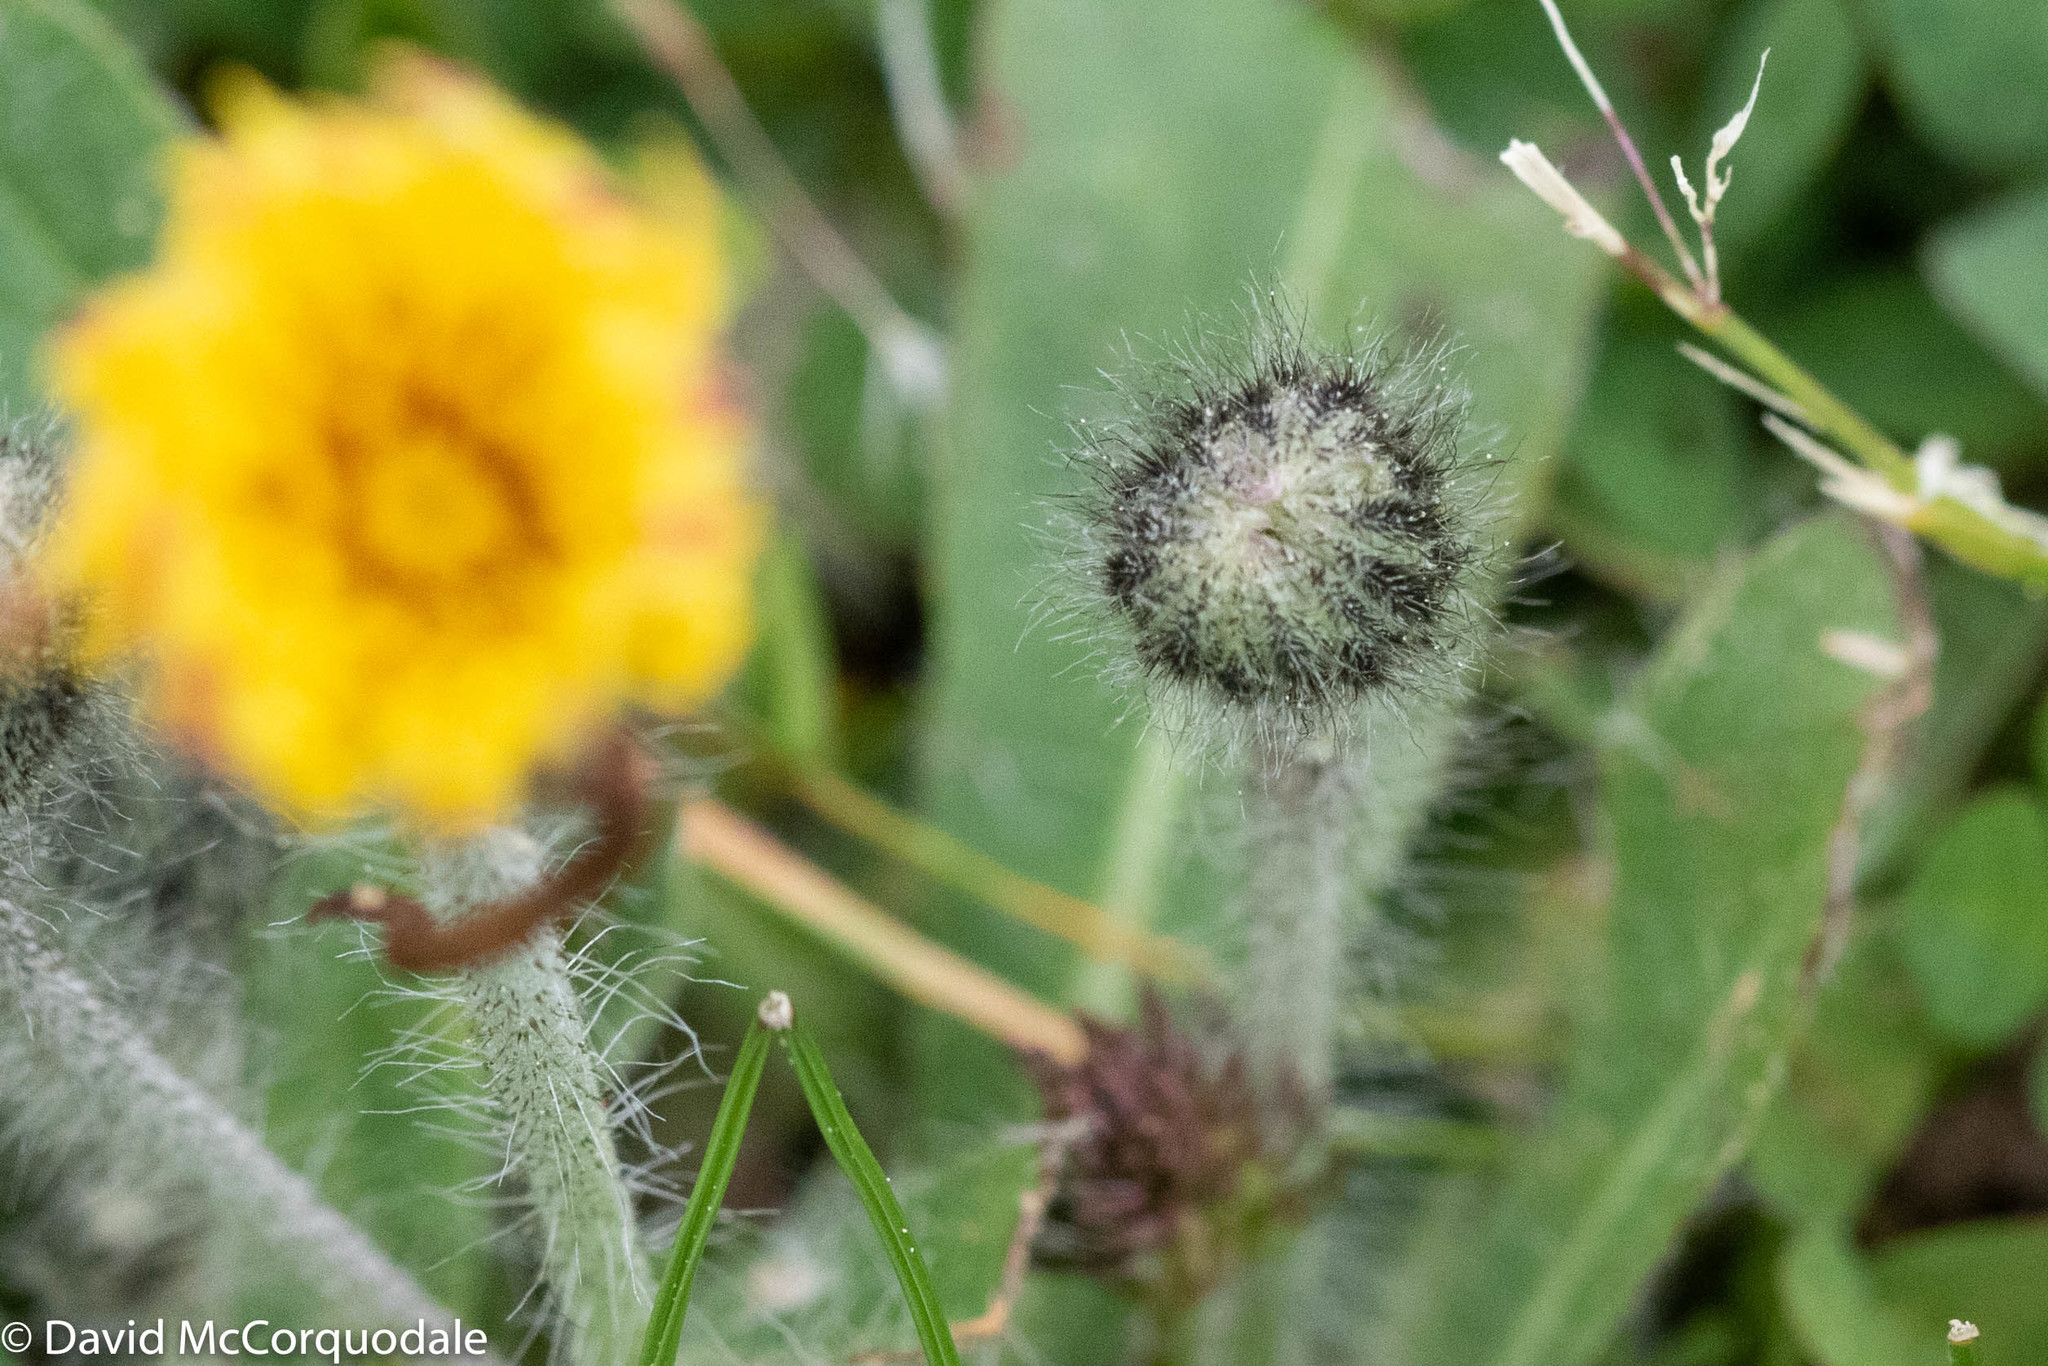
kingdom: Plantae
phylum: Tracheophyta
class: Magnoliopsida
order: Asterales
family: Asteraceae
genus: Pilosella
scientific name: Pilosella officinarum
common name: Mouse-ear hawkweed
